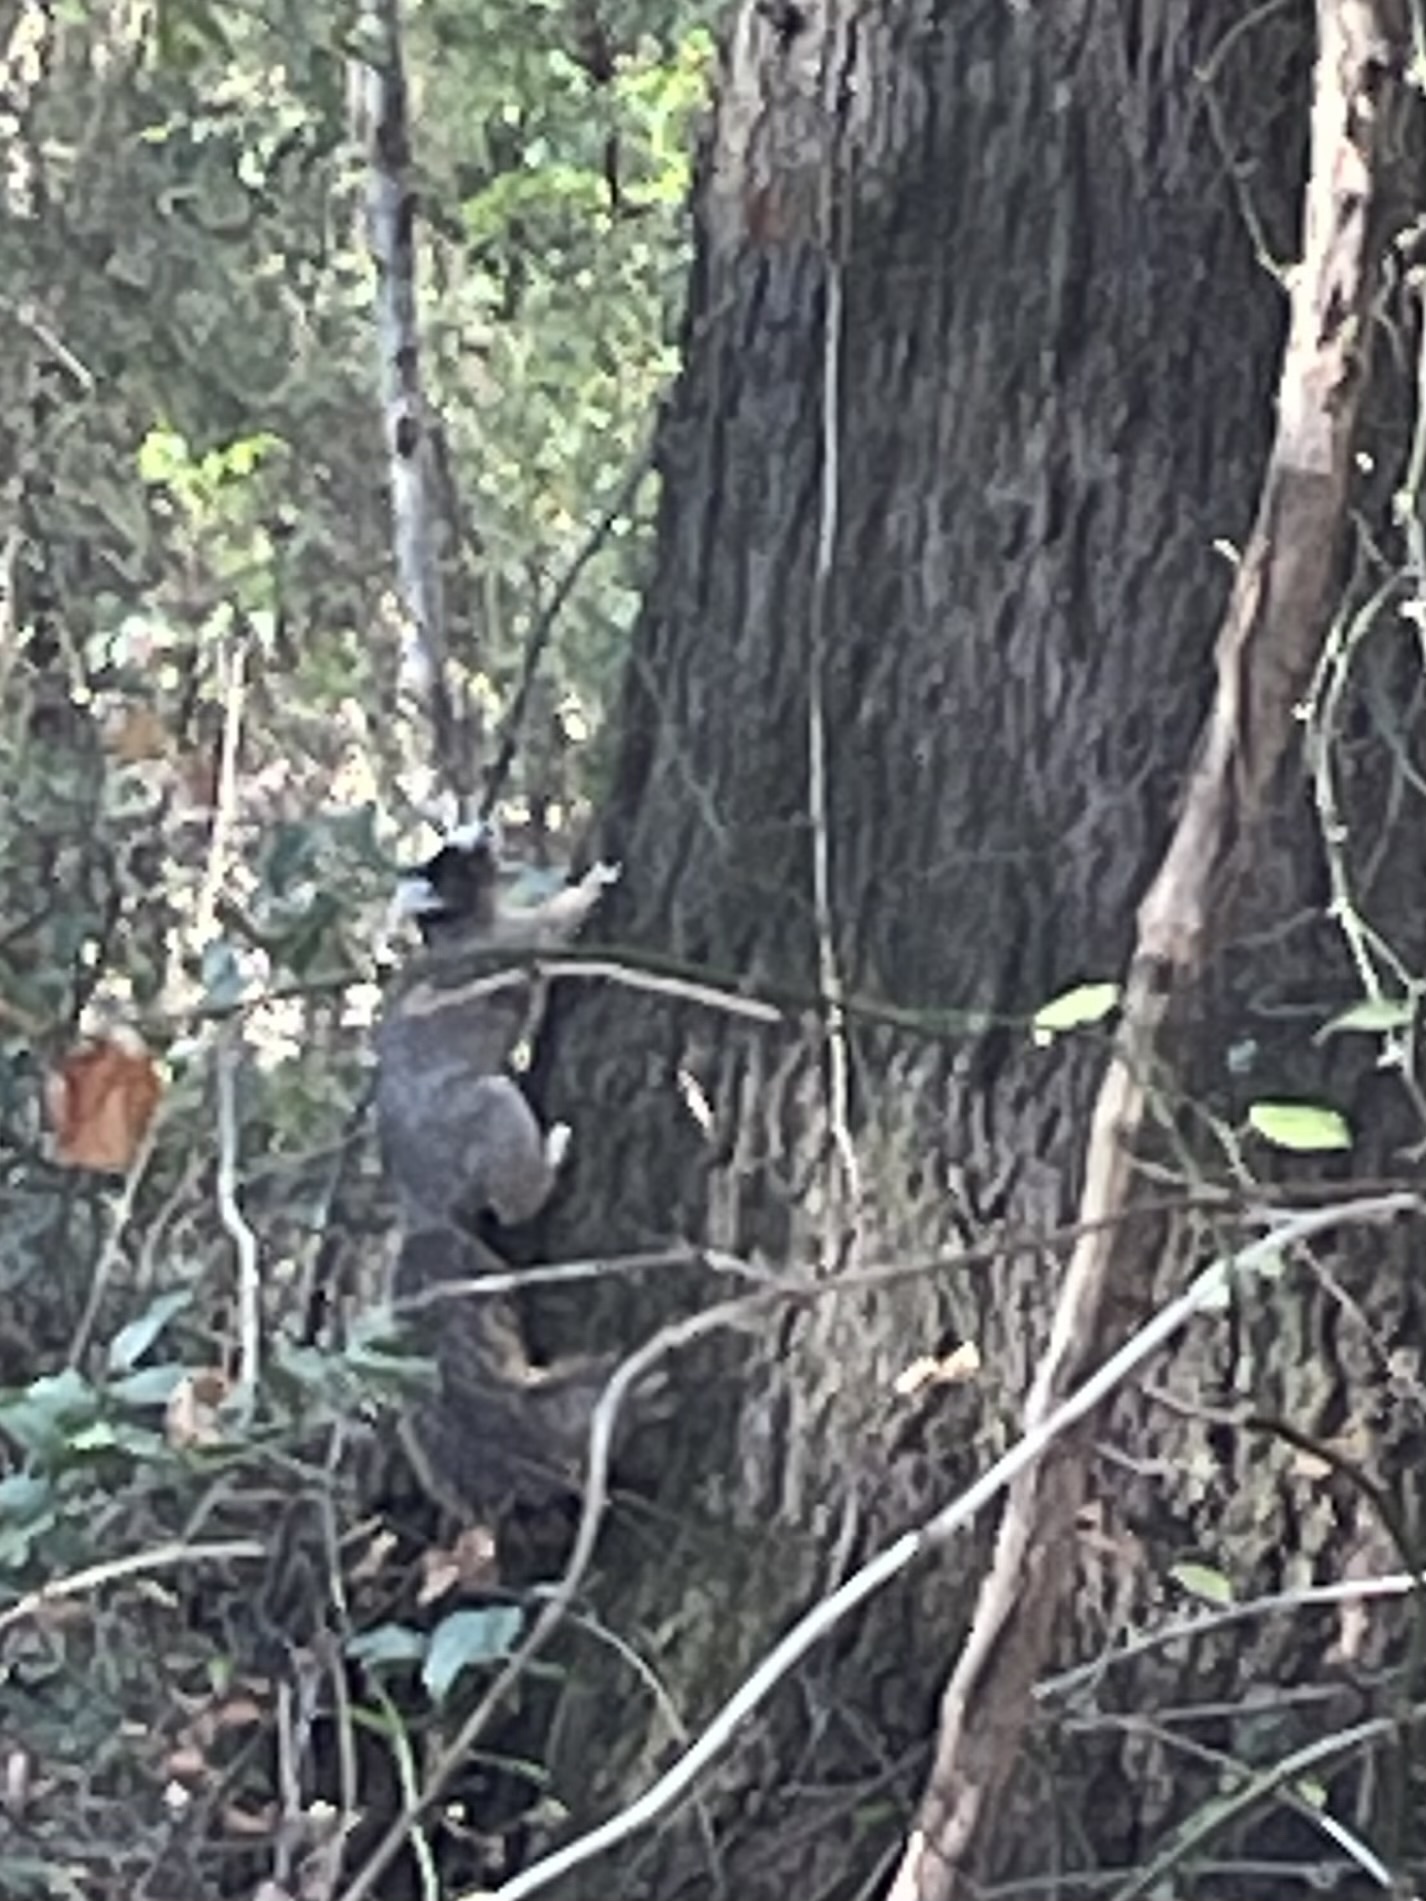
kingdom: Animalia
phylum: Chordata
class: Mammalia
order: Rodentia
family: Sciuridae
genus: Sciurus
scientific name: Sciurus niger
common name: Fox squirrel
